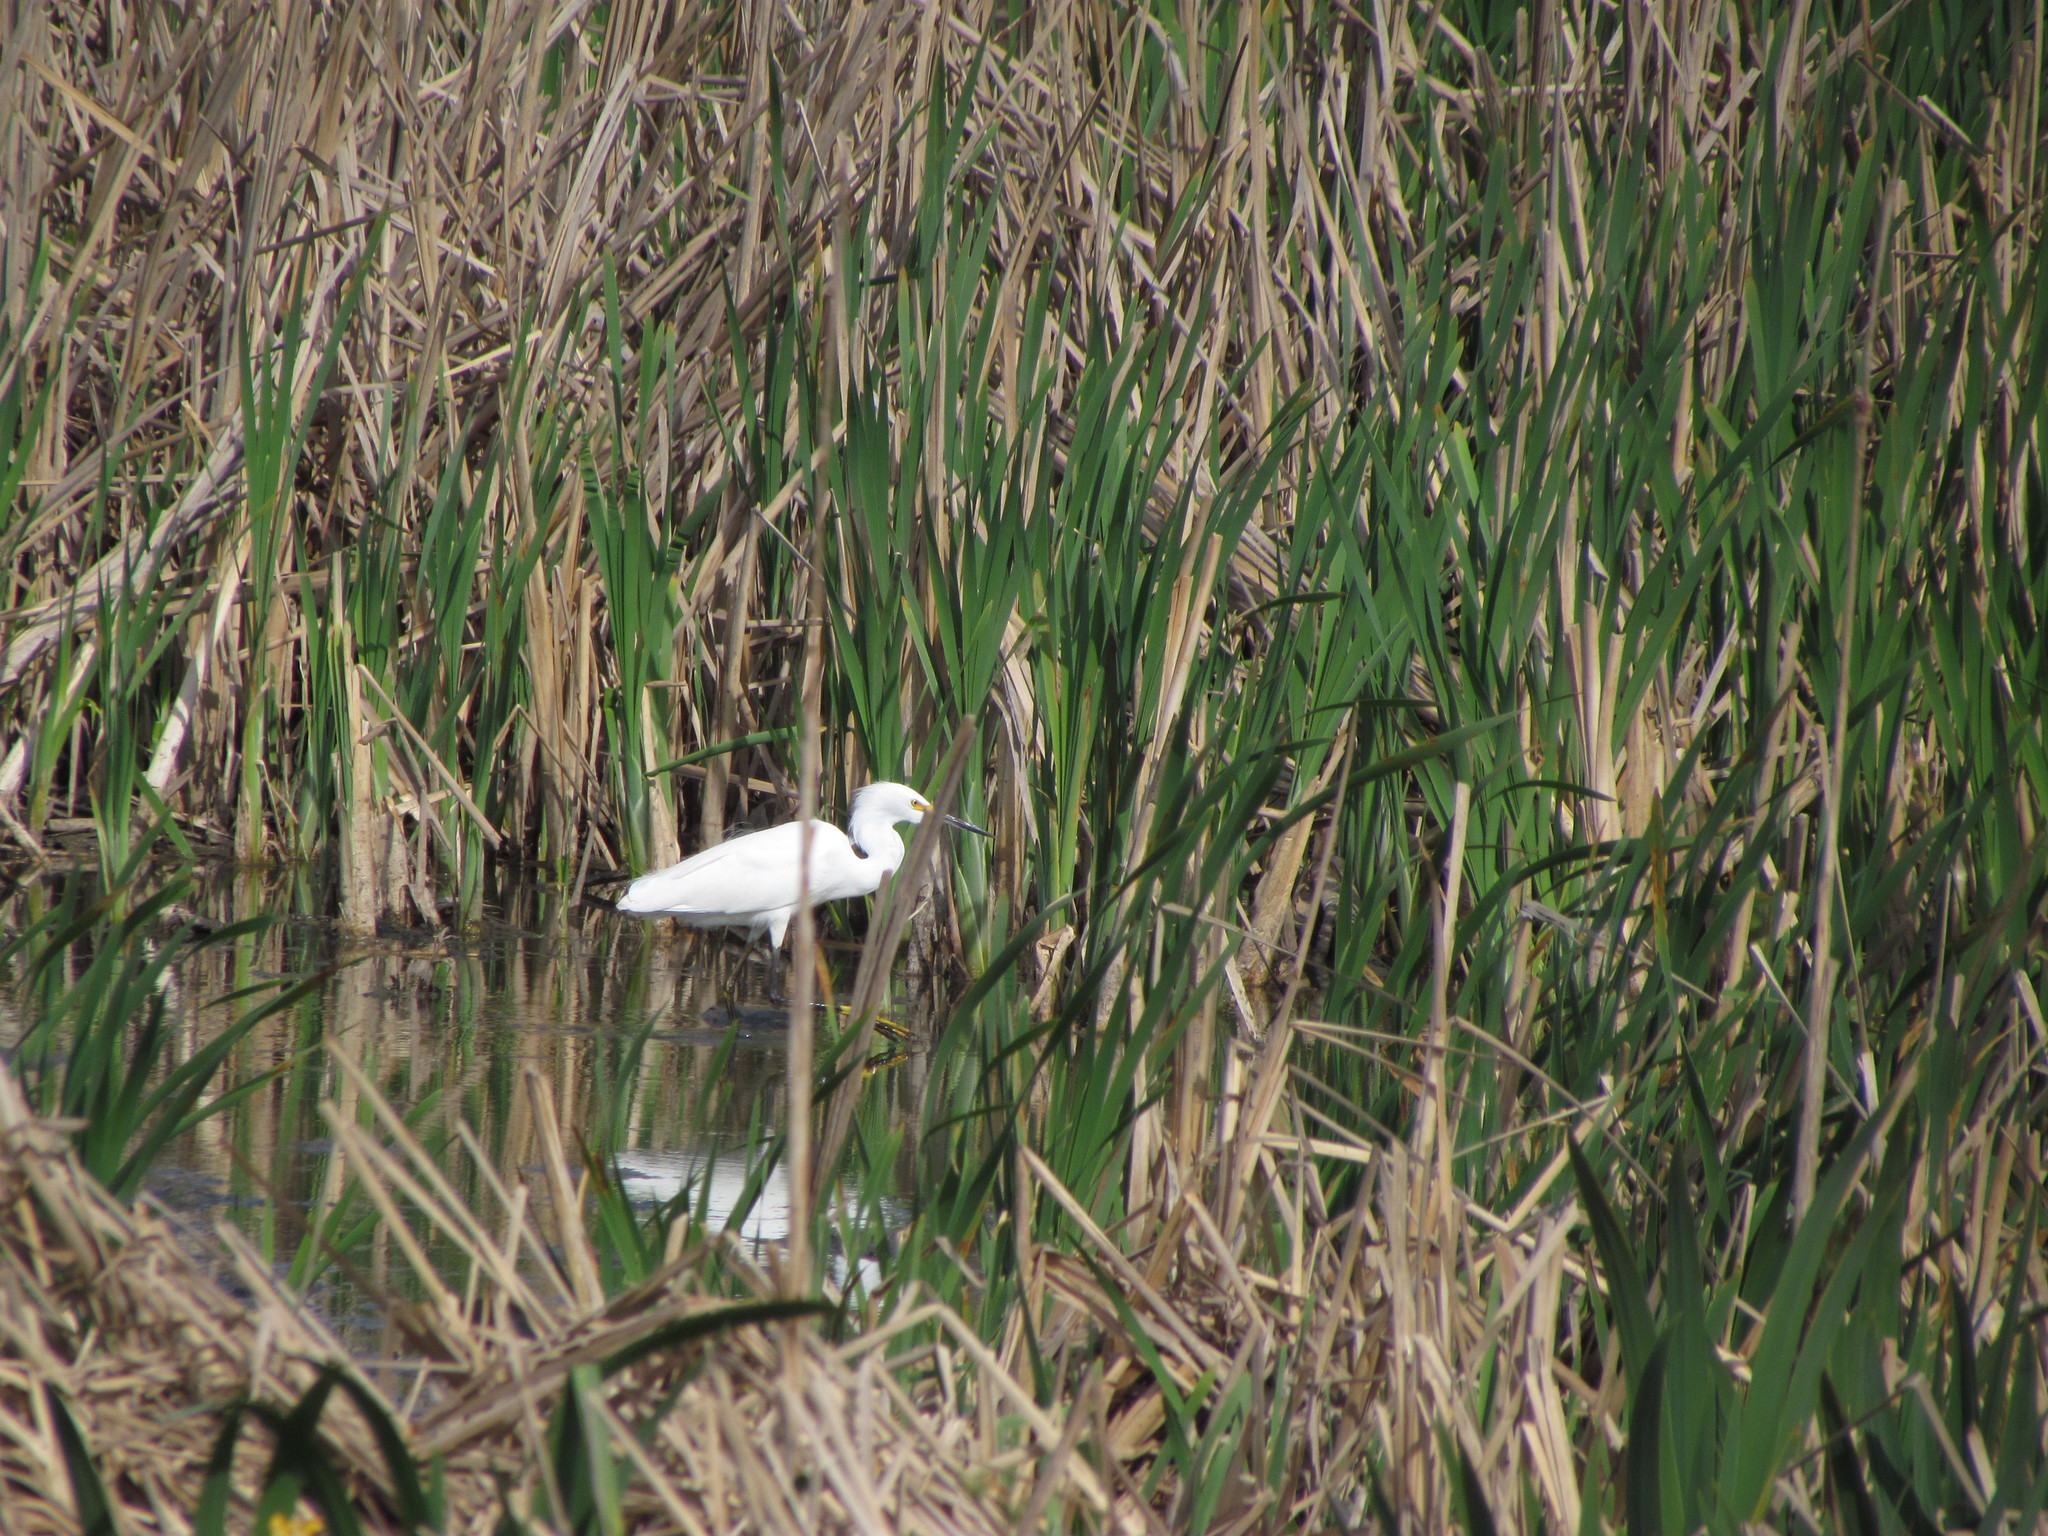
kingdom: Animalia
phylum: Chordata
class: Aves
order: Pelecaniformes
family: Ardeidae
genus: Egretta
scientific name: Egretta thula
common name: Snowy egret
